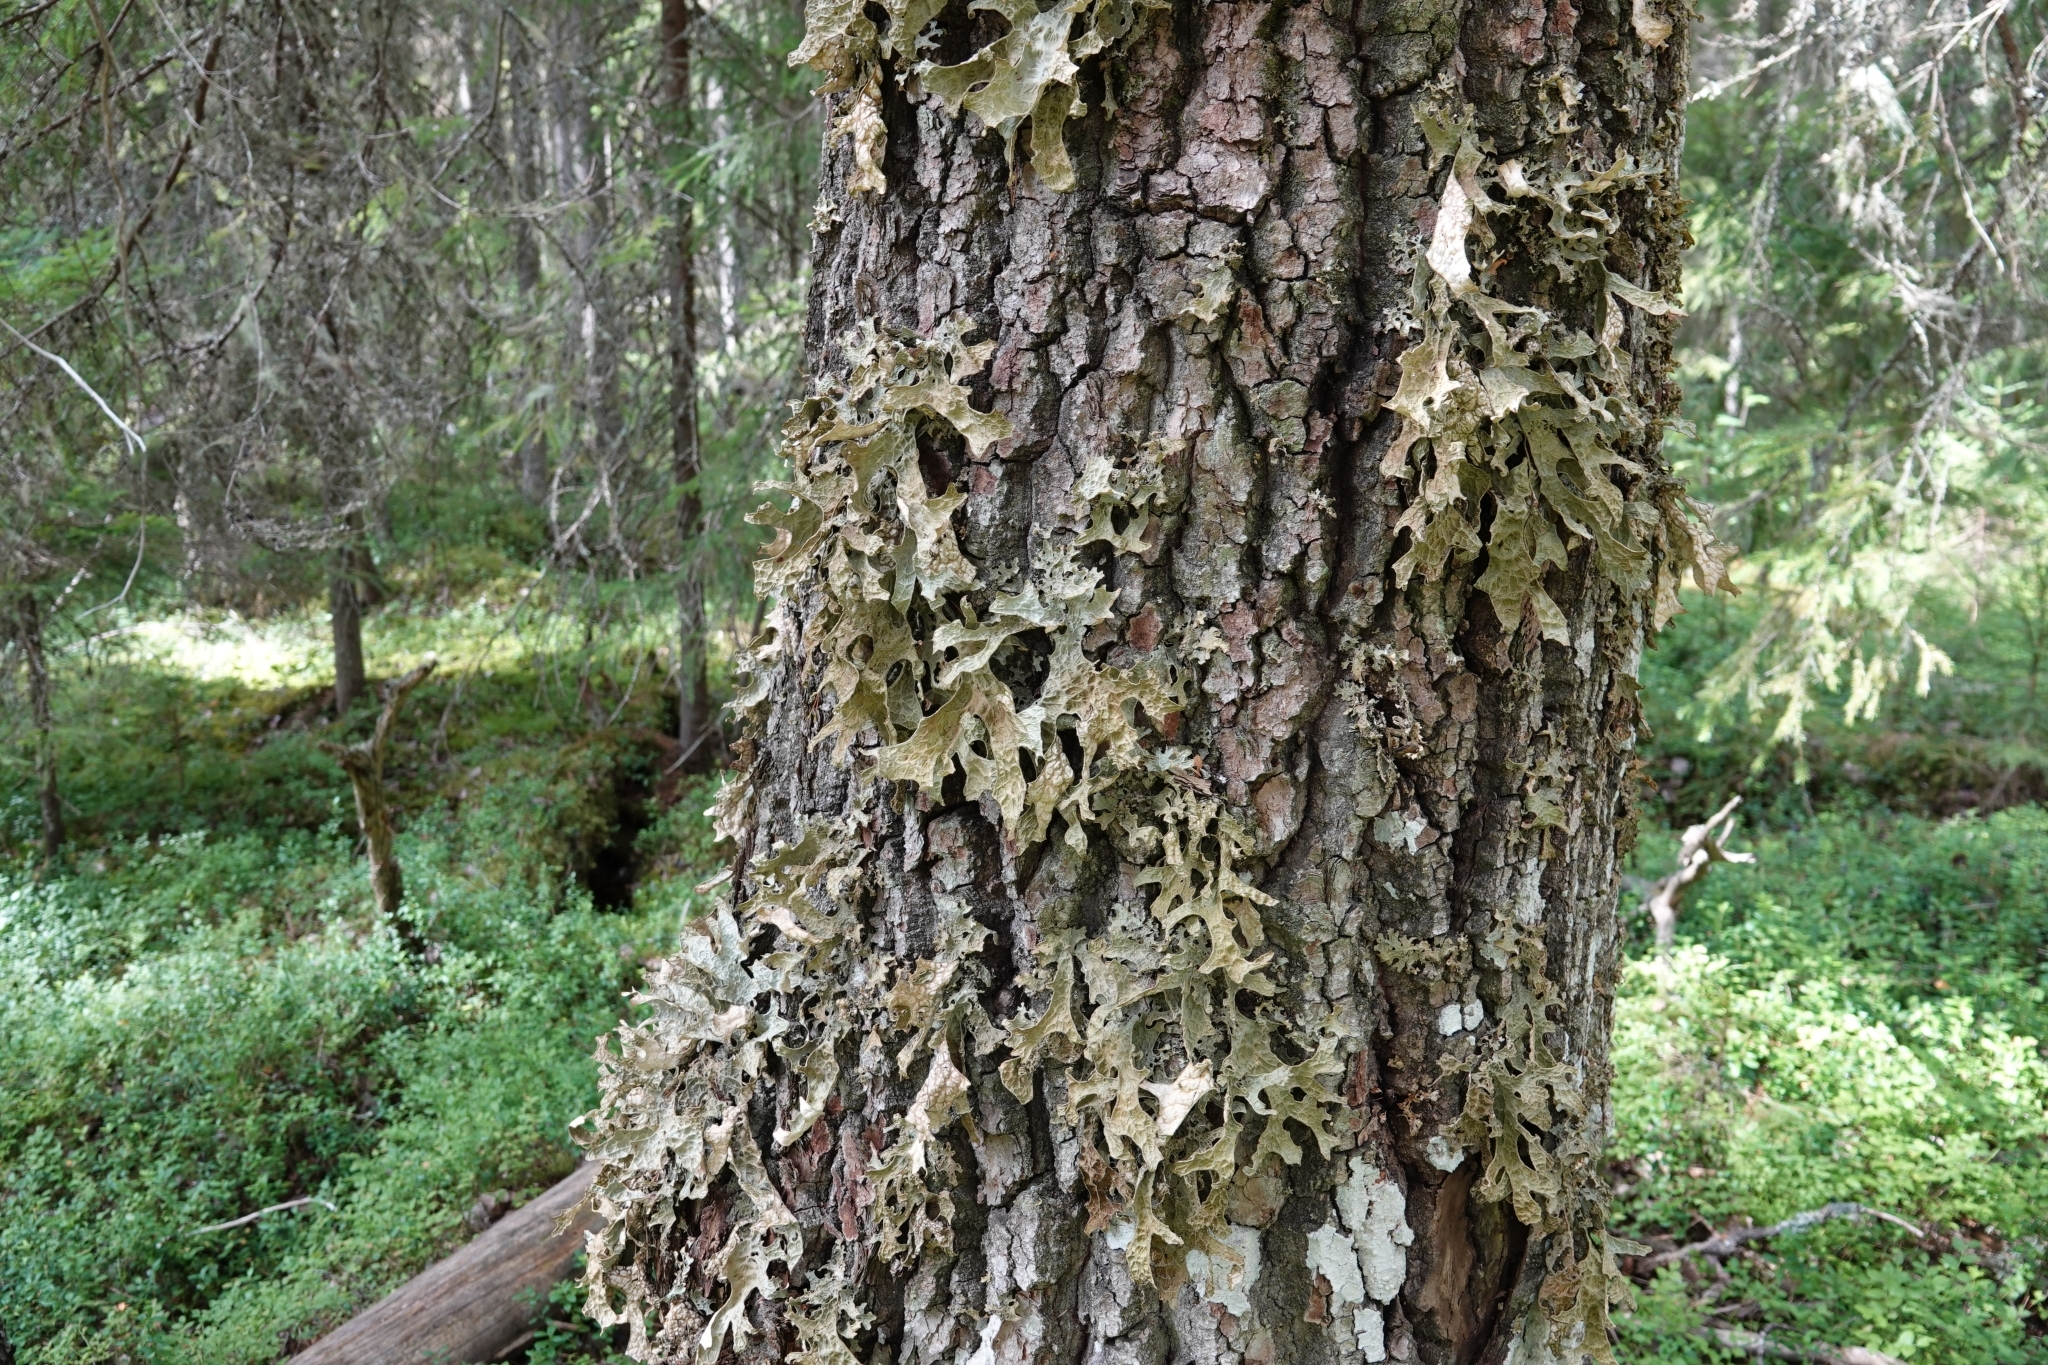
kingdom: Fungi
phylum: Ascomycota
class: Lecanoromycetes
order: Peltigerales
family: Lobariaceae
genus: Lobaria
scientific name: Lobaria pulmonaria
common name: Lungwort
